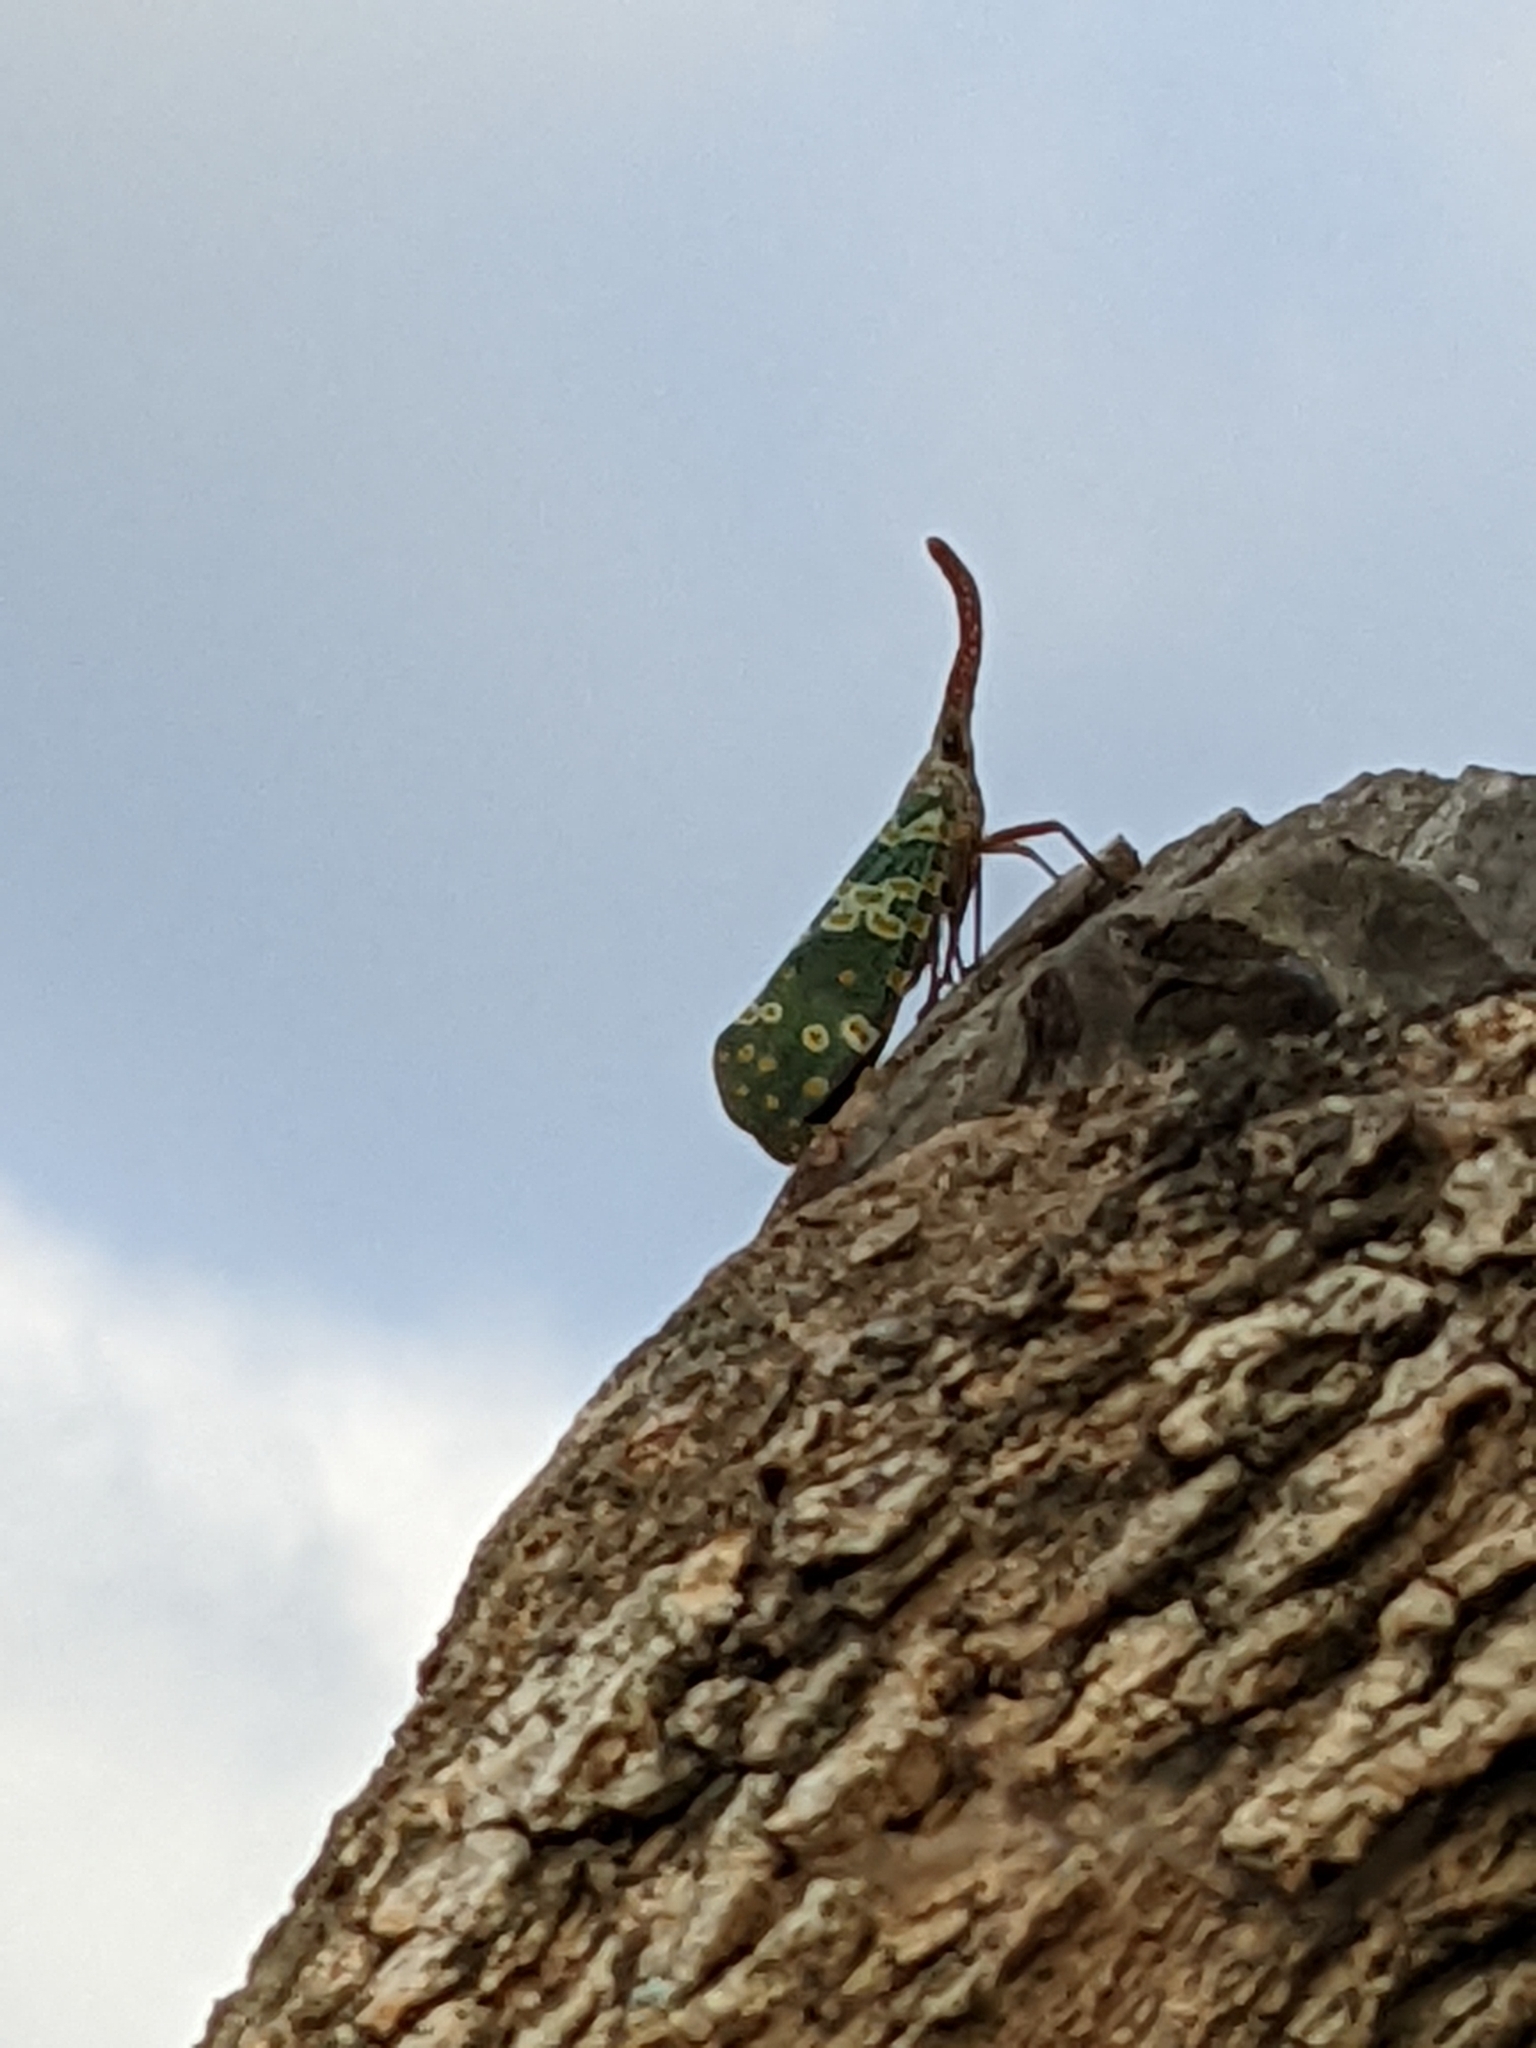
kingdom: Animalia
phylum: Arthropoda
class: Insecta
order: Hemiptera
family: Fulgoridae
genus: Pyrops
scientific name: Pyrops candelaria
